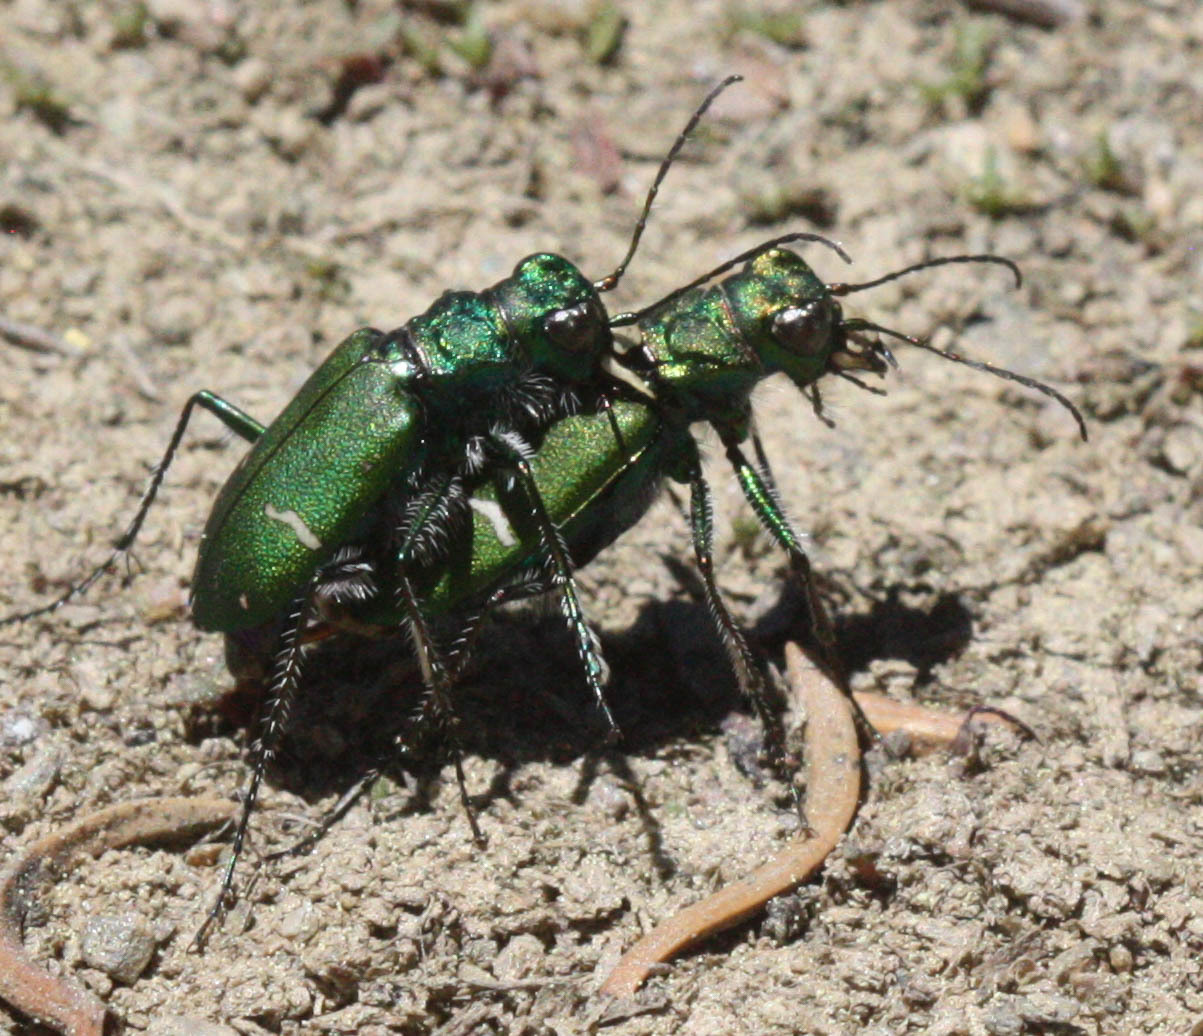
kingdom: Animalia
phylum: Arthropoda
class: Insecta
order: Coleoptera
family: Carabidae
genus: Cicindela
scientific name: Cicindela longilabris
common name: Boreal long-lipped tiger beetle
